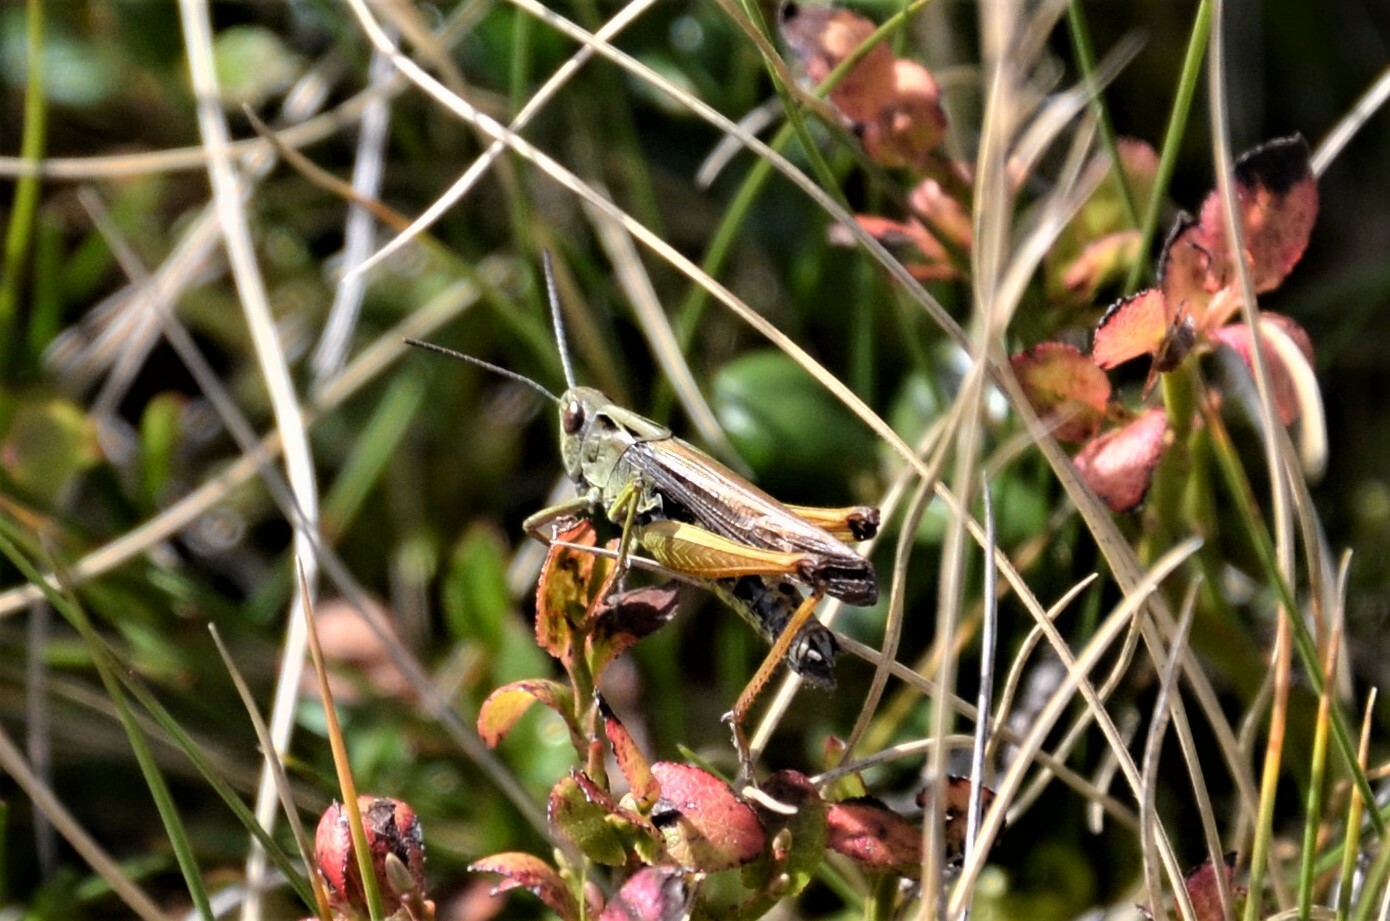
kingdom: Animalia
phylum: Arthropoda
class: Insecta
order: Orthoptera
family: Acrididae
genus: Omocestus
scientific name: Omocestus viridulus
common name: Common green grasshopper
